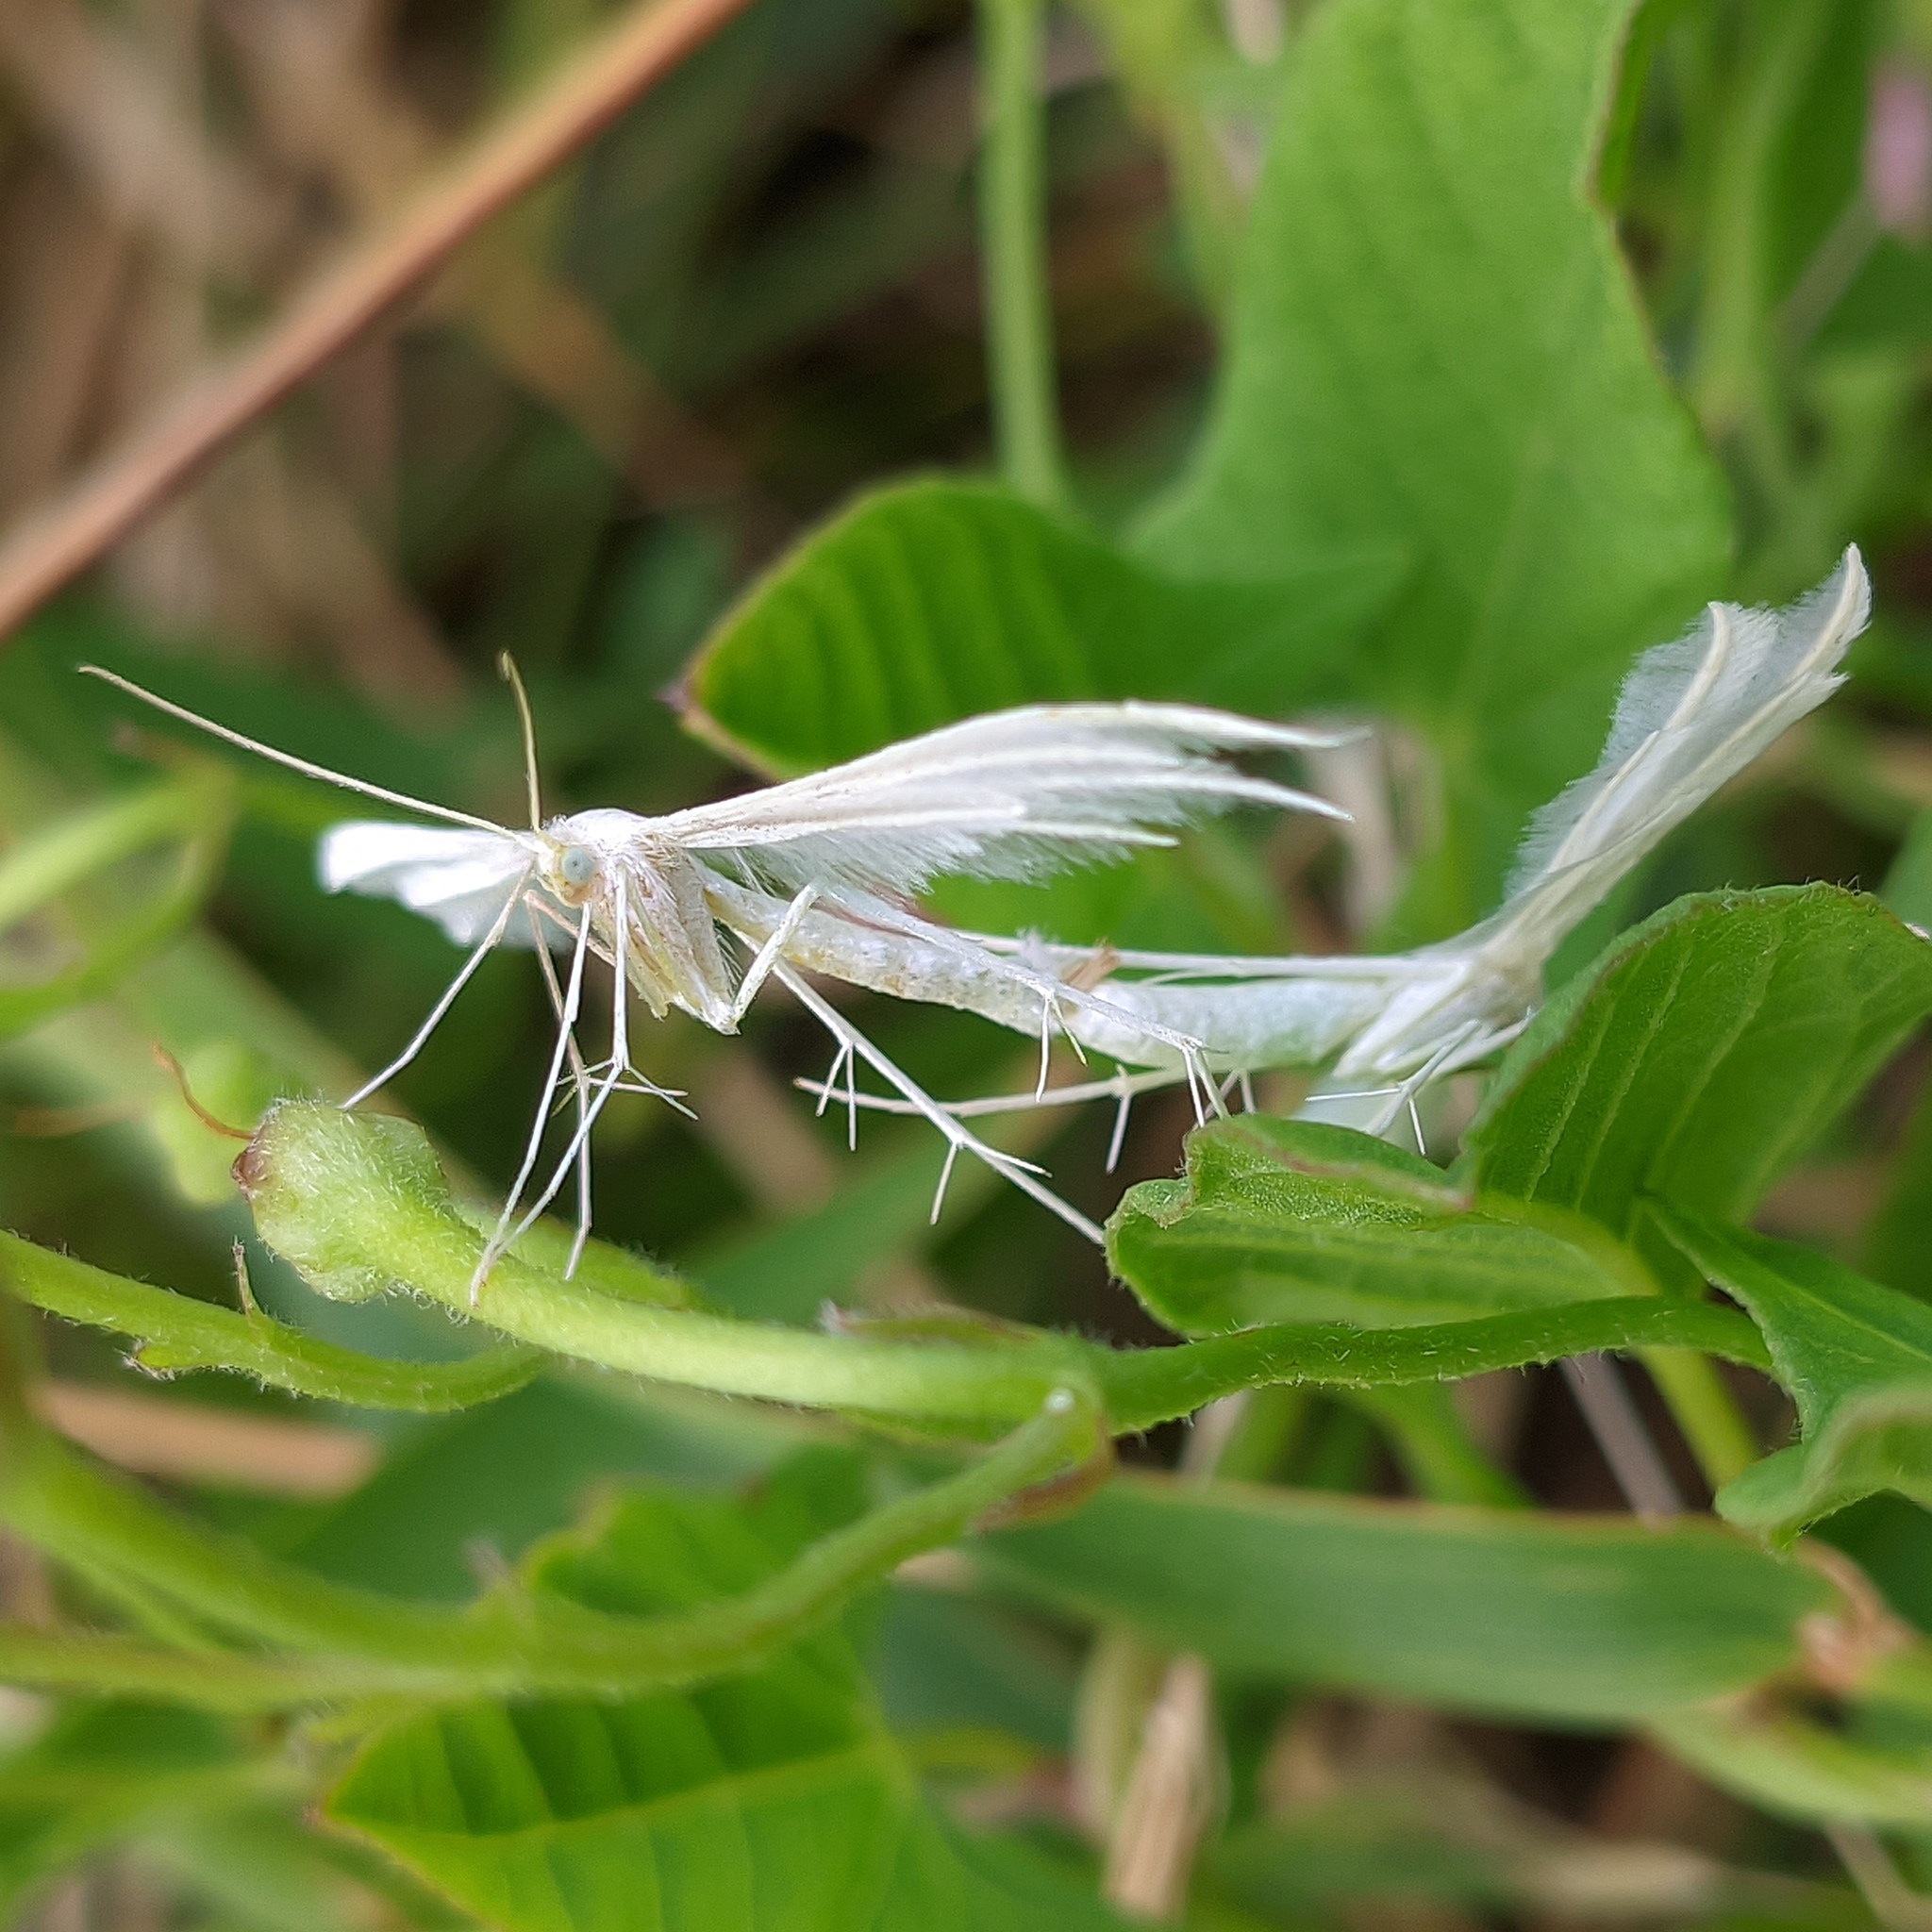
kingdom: Animalia
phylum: Arthropoda
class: Insecta
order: Lepidoptera
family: Pterophoridae
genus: Pterophorus
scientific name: Pterophorus pentadactyla
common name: White plume moth
